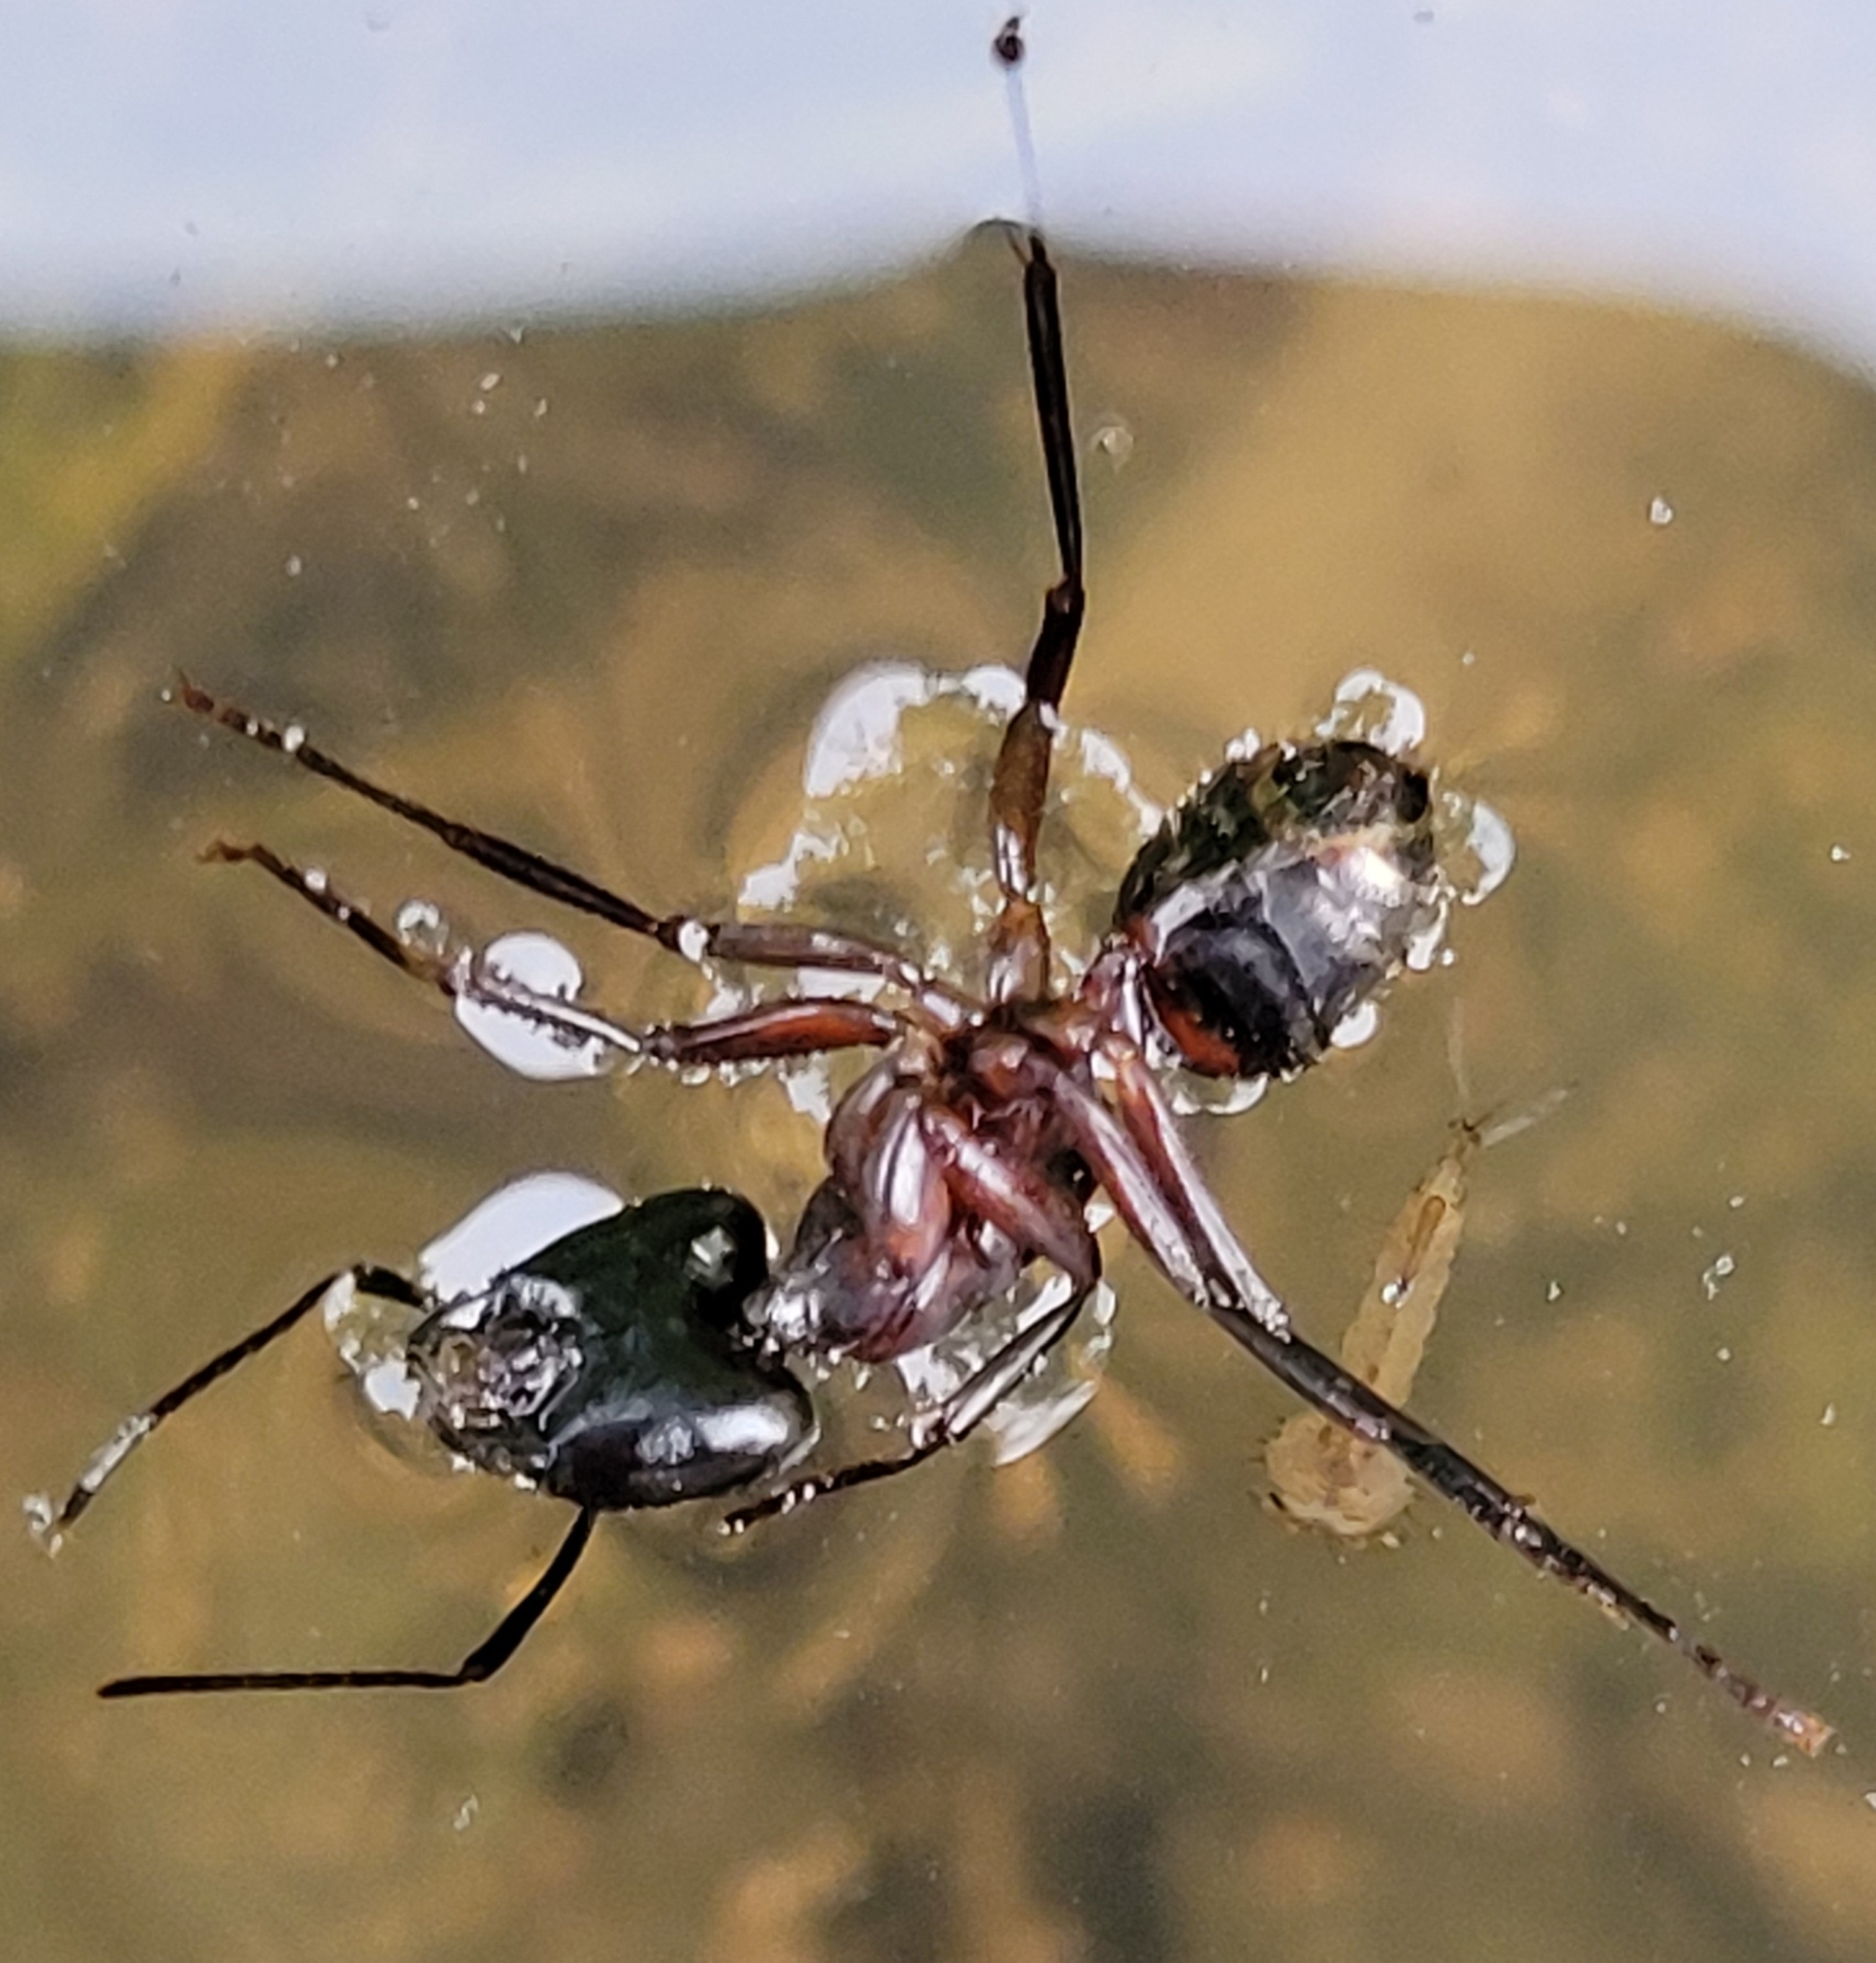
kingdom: Animalia
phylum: Arthropoda
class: Insecta
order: Hymenoptera
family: Formicidae
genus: Camponotus
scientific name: Camponotus ligniperdus
